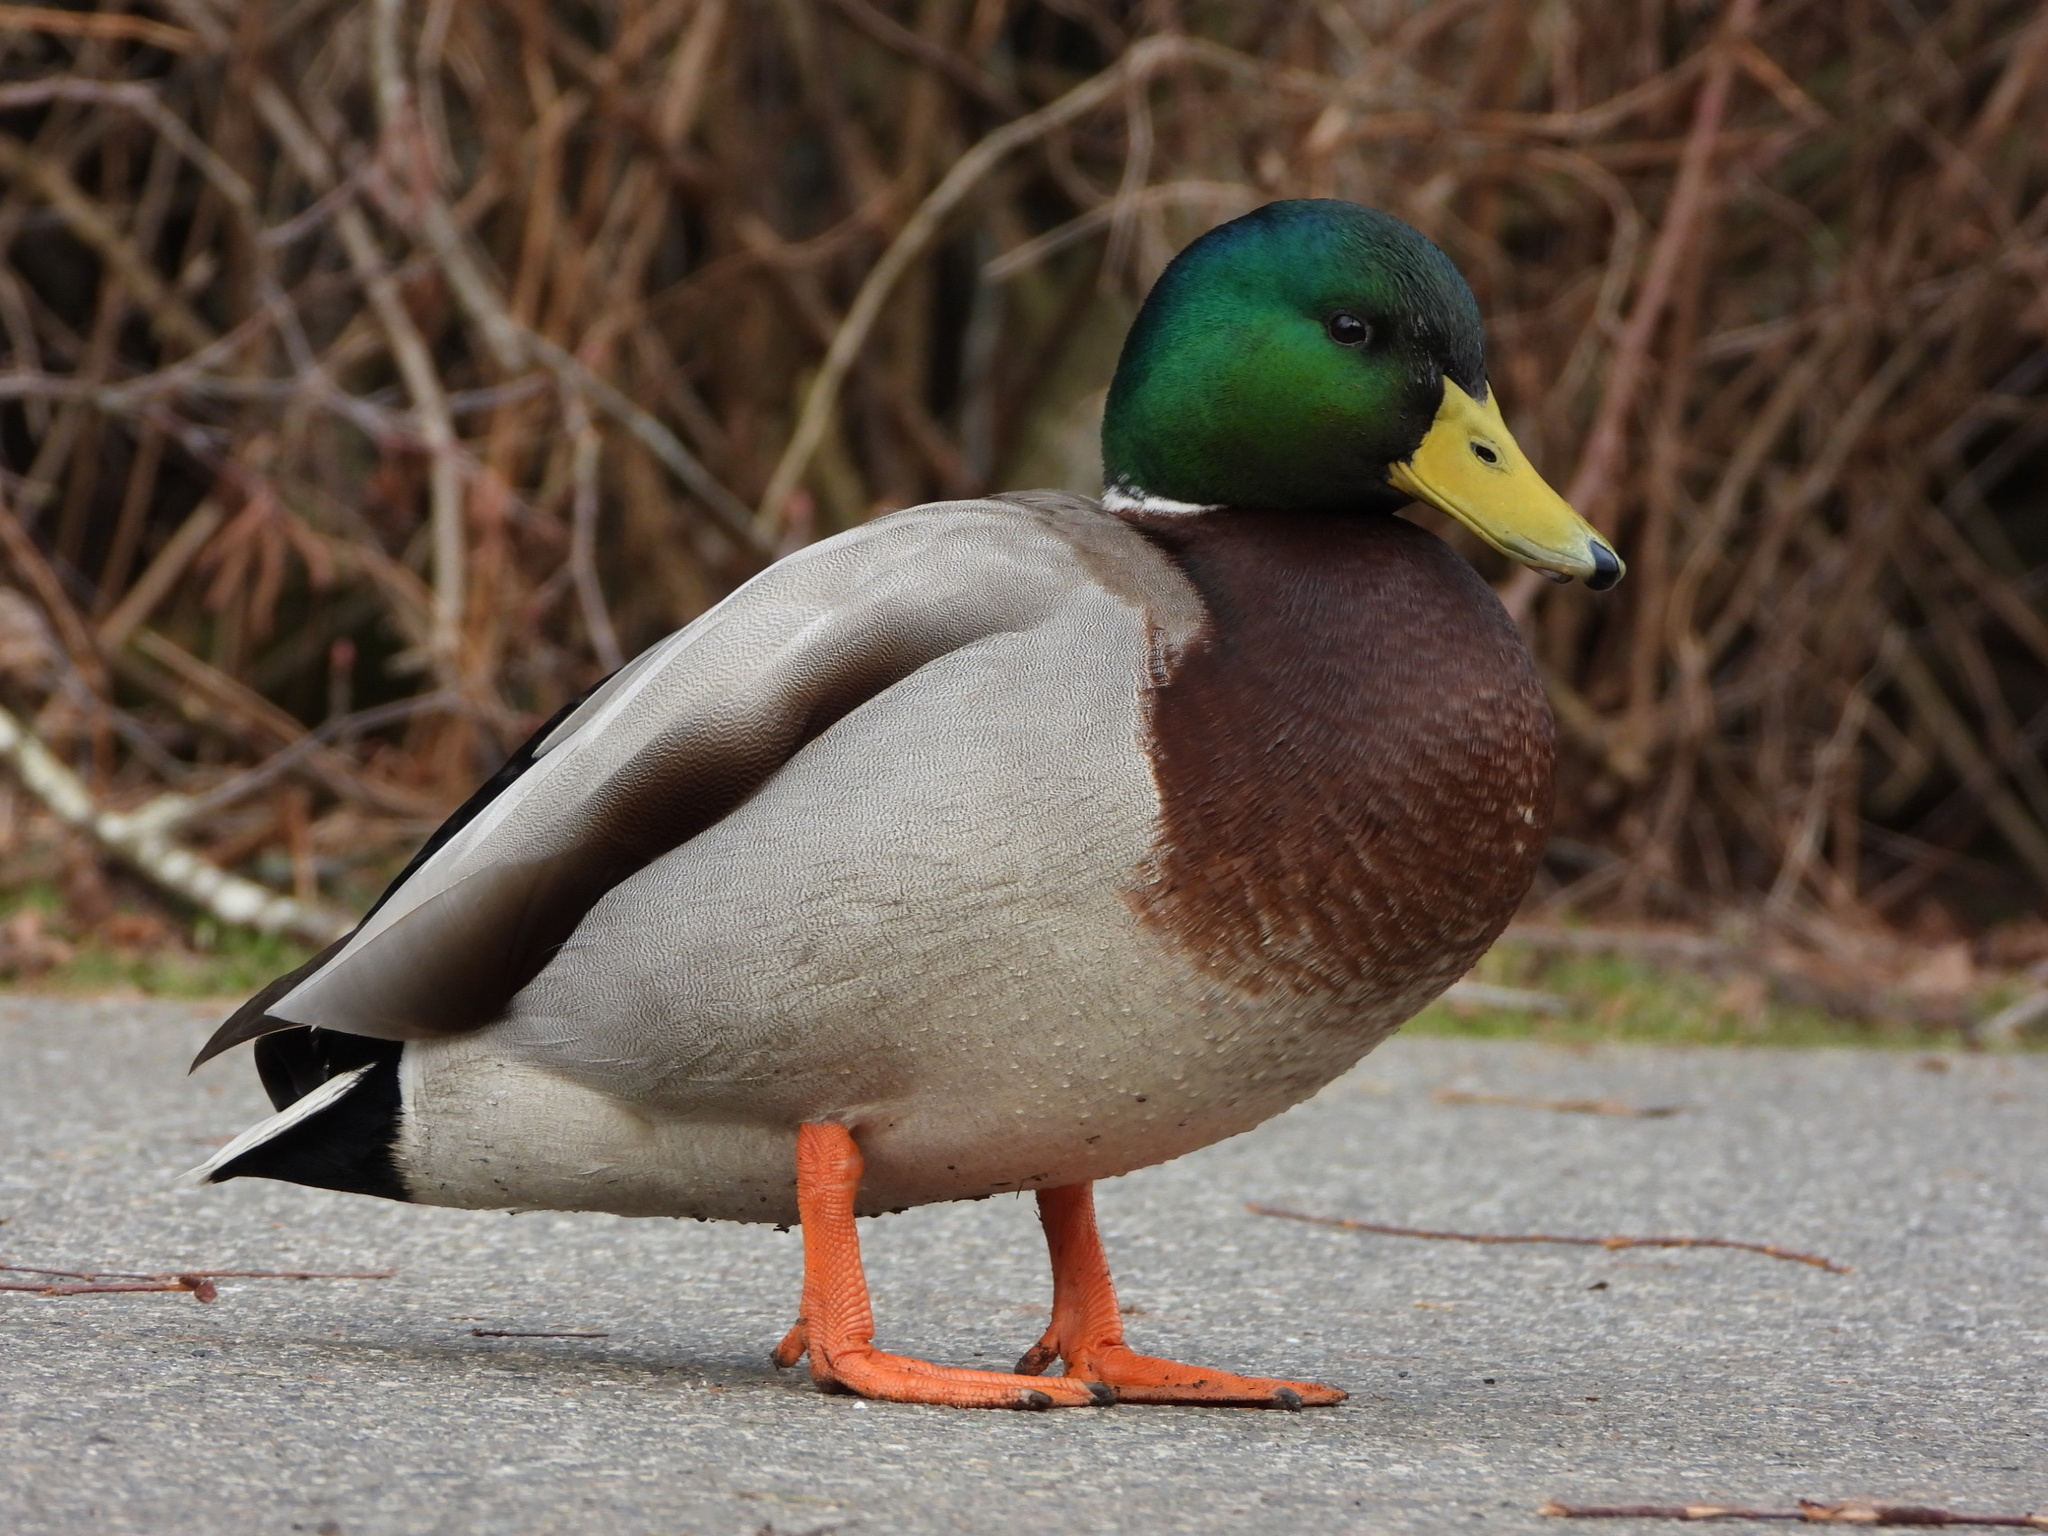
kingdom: Animalia
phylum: Chordata
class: Aves
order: Anseriformes
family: Anatidae
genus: Anas
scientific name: Anas platyrhynchos
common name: Mallard
